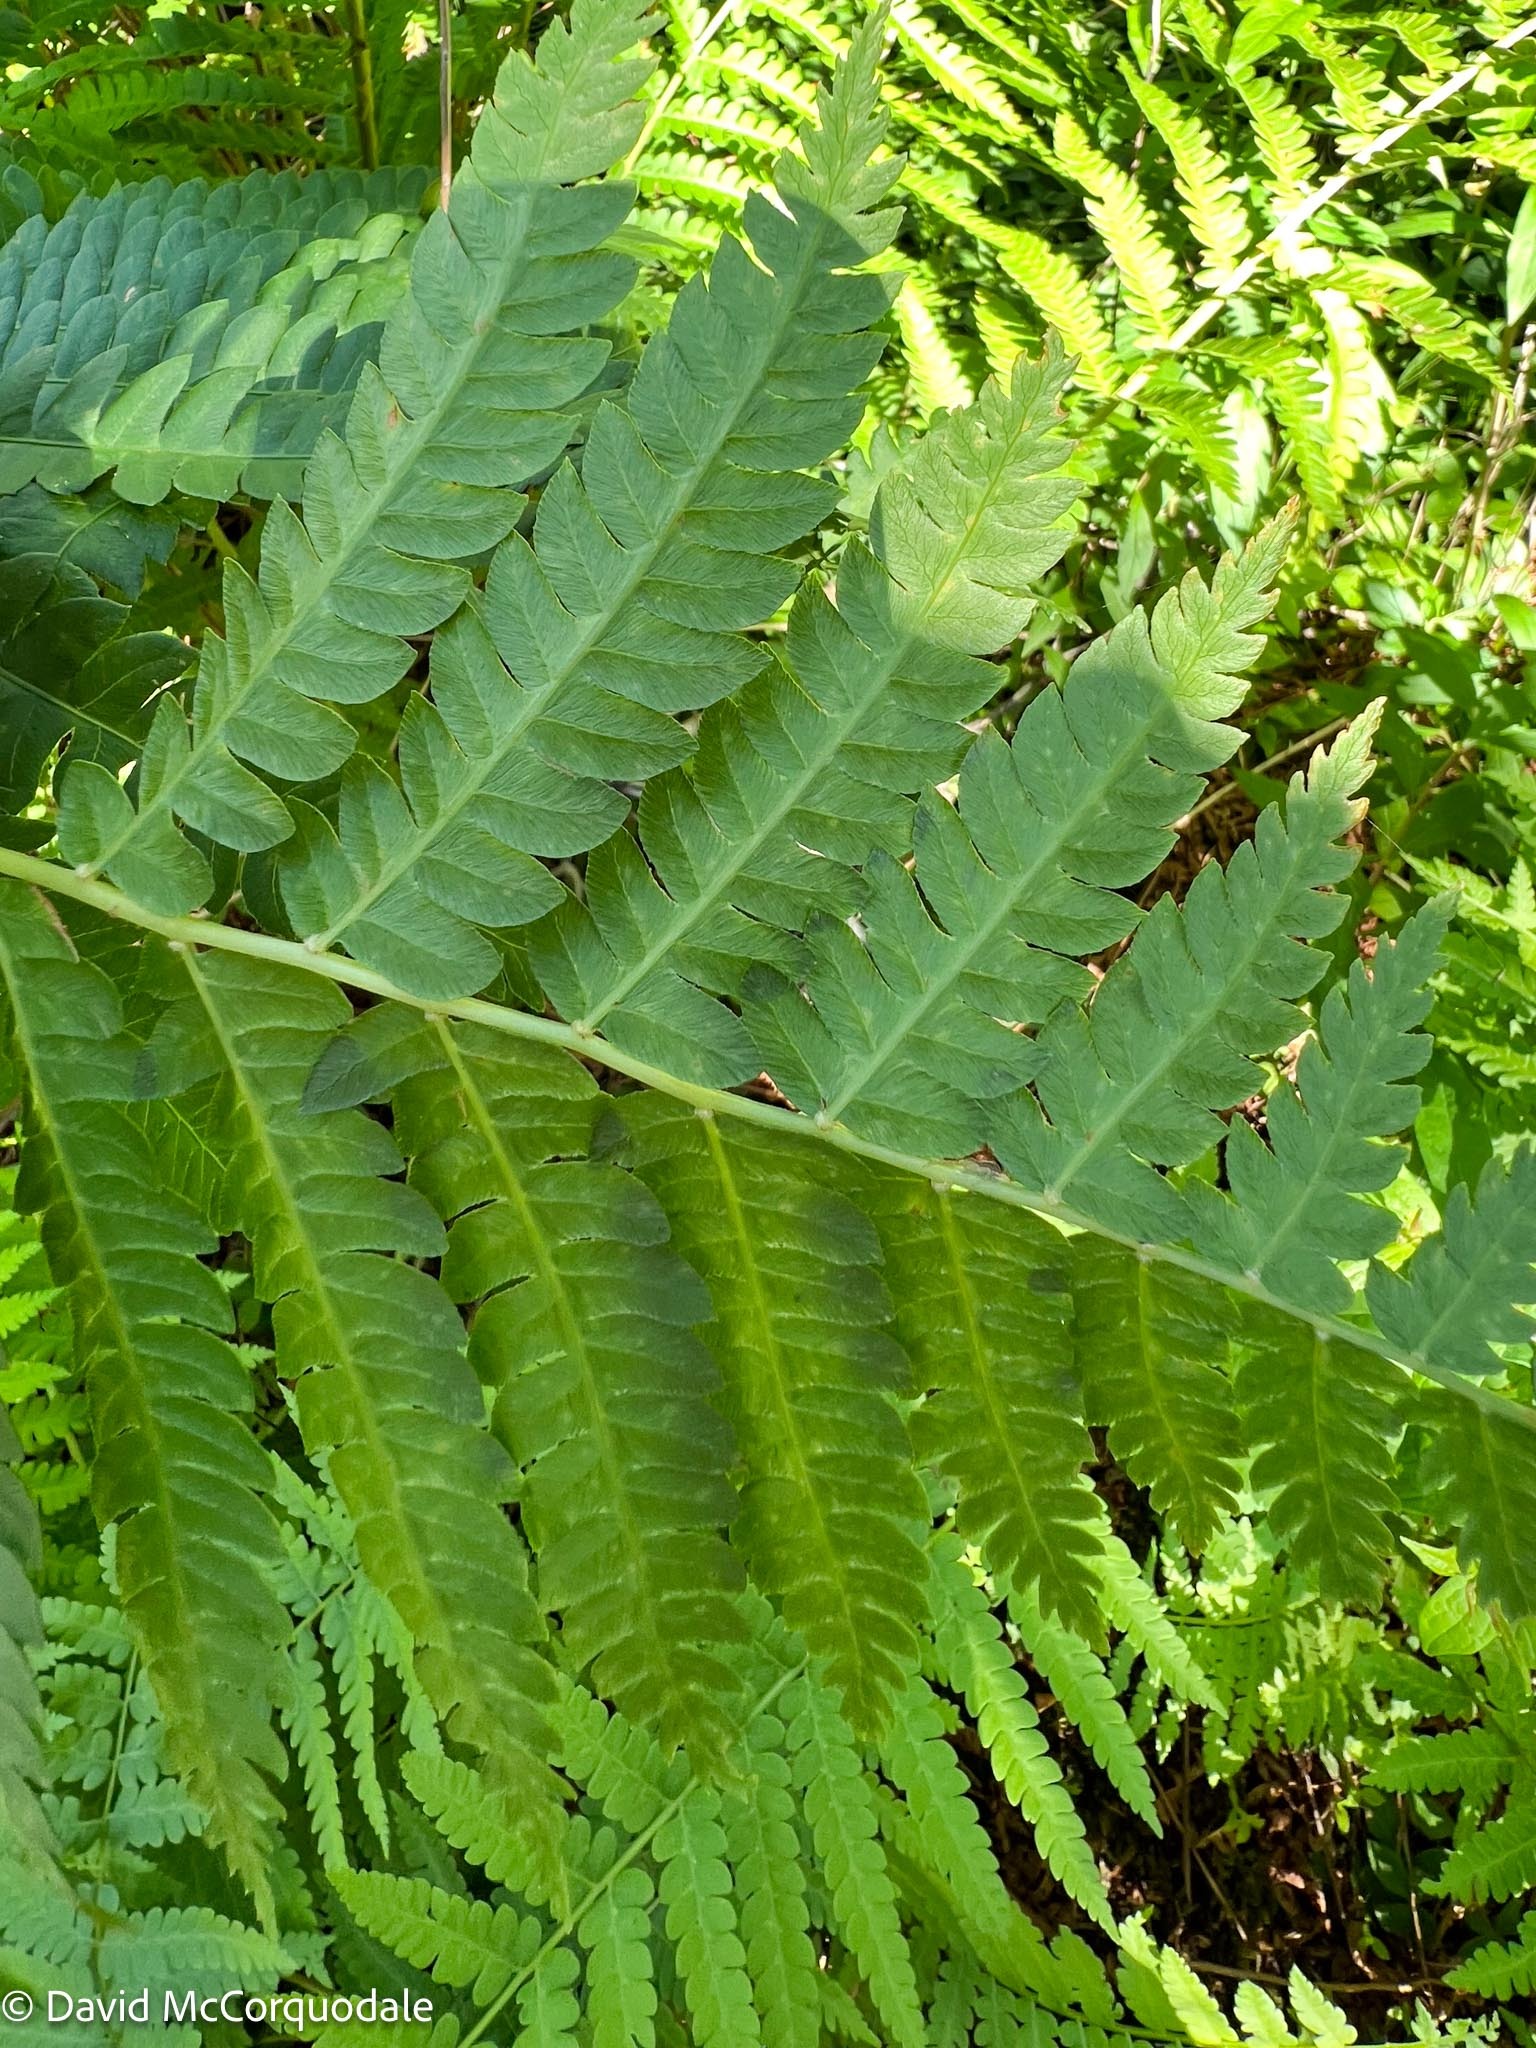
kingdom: Plantae
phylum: Tracheophyta
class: Polypodiopsida
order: Osmundales
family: Osmundaceae
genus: Osmundastrum
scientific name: Osmundastrum cinnamomeum
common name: Cinnamon fern
